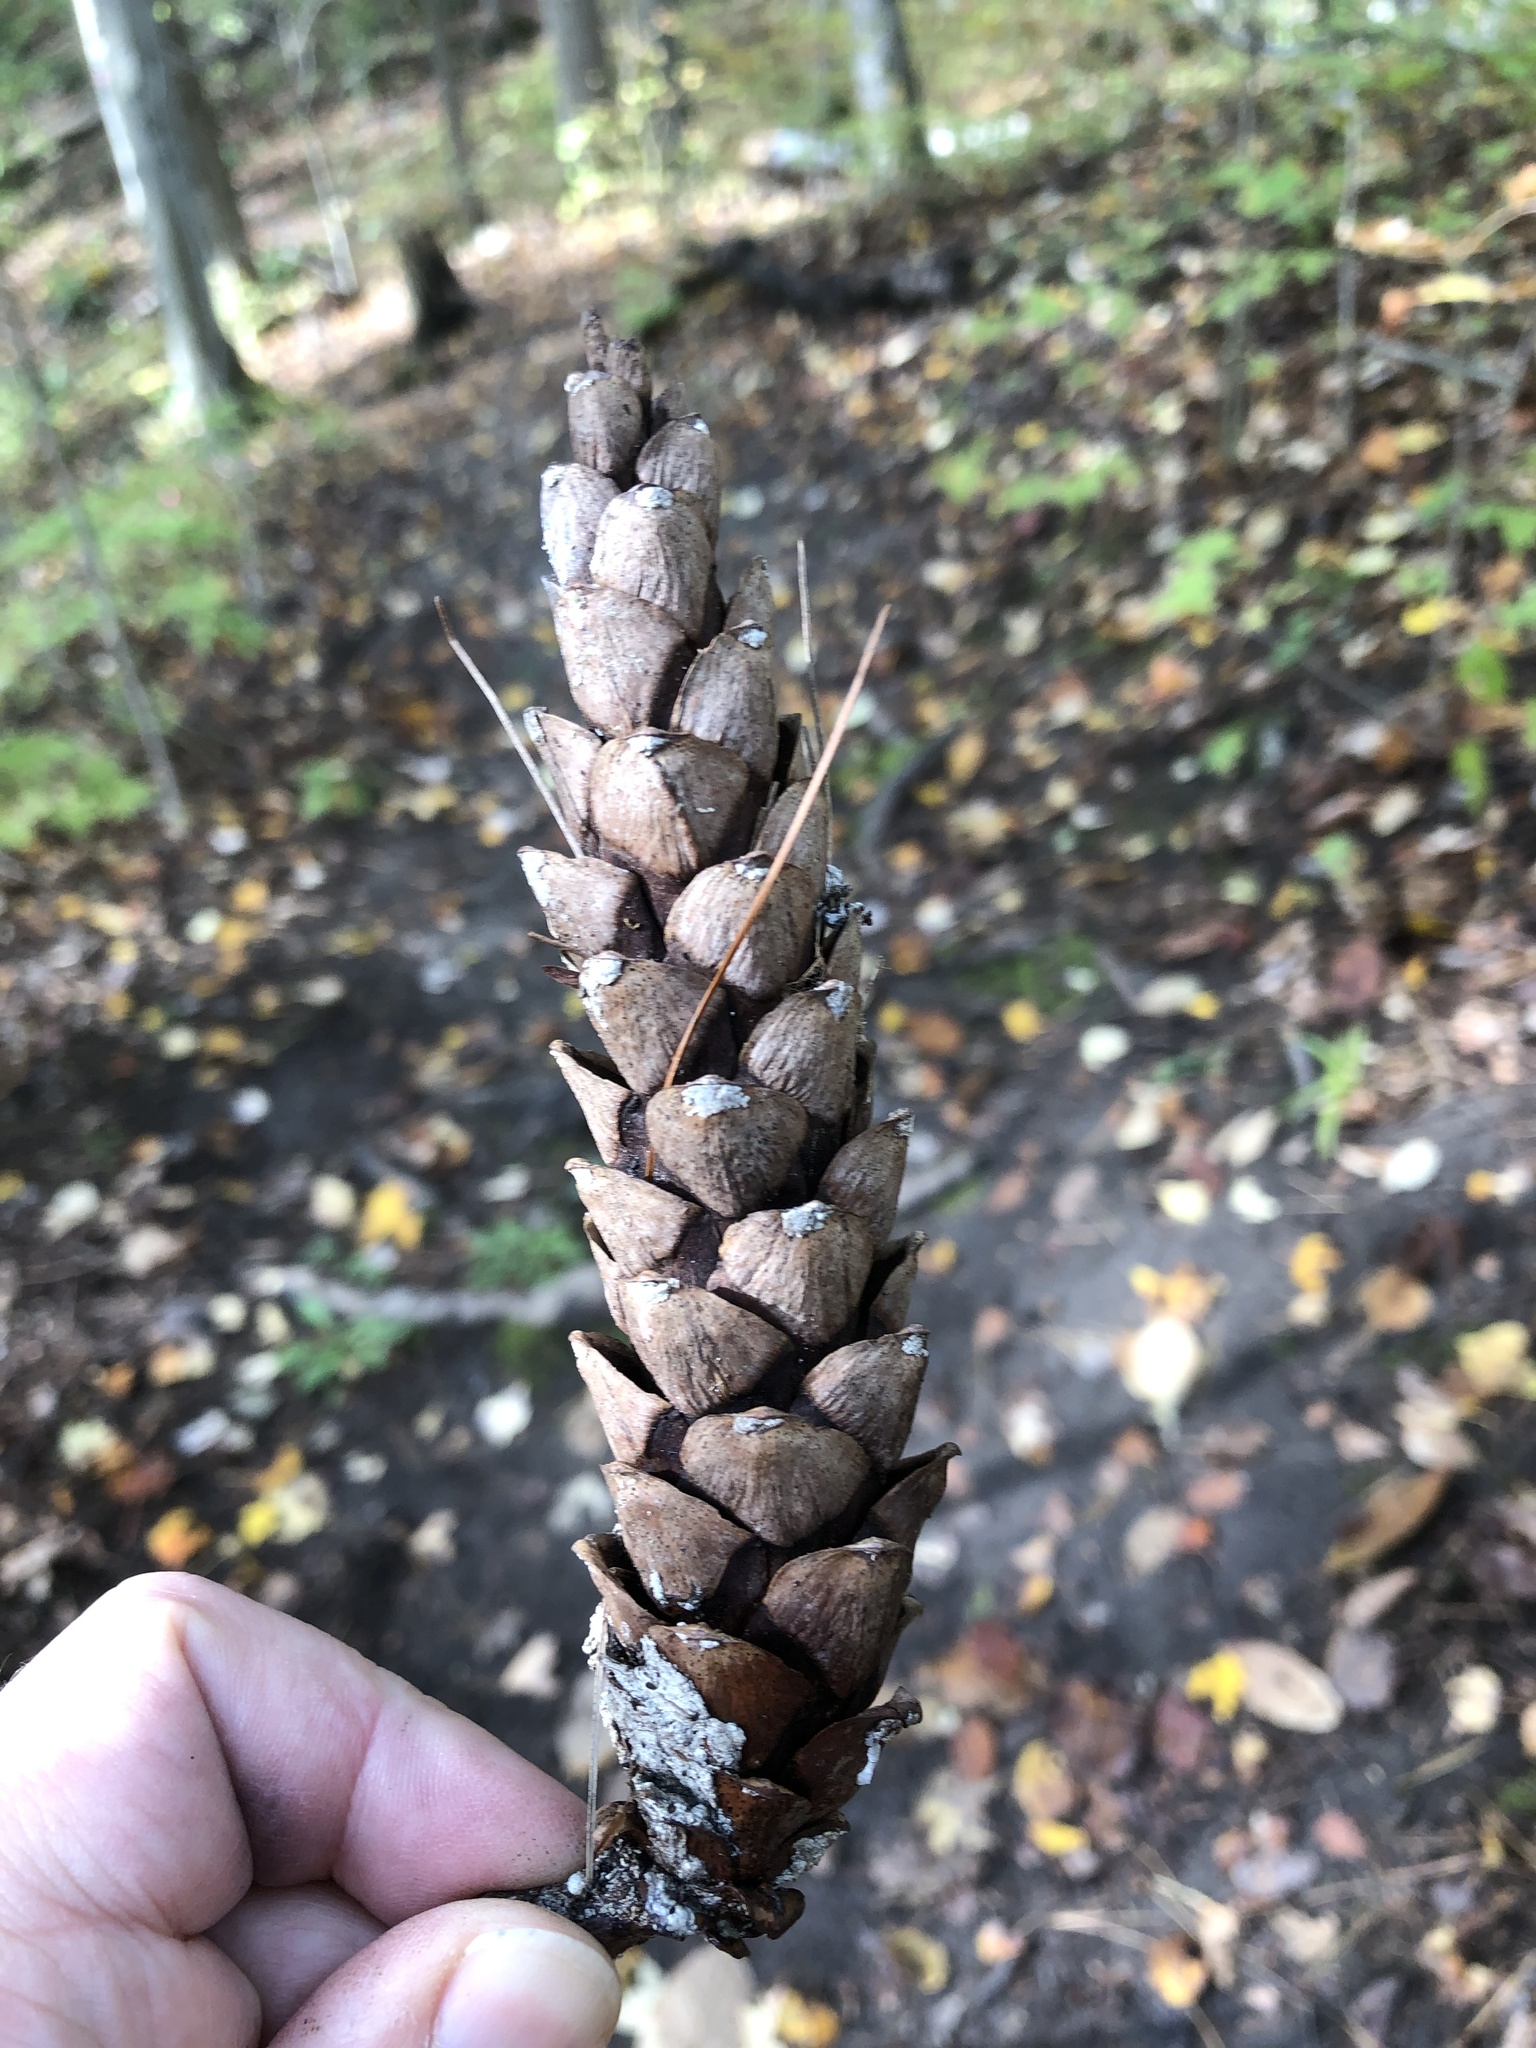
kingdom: Plantae
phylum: Tracheophyta
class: Pinopsida
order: Pinales
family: Pinaceae
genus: Pinus
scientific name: Pinus strobus
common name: Weymouth pine
